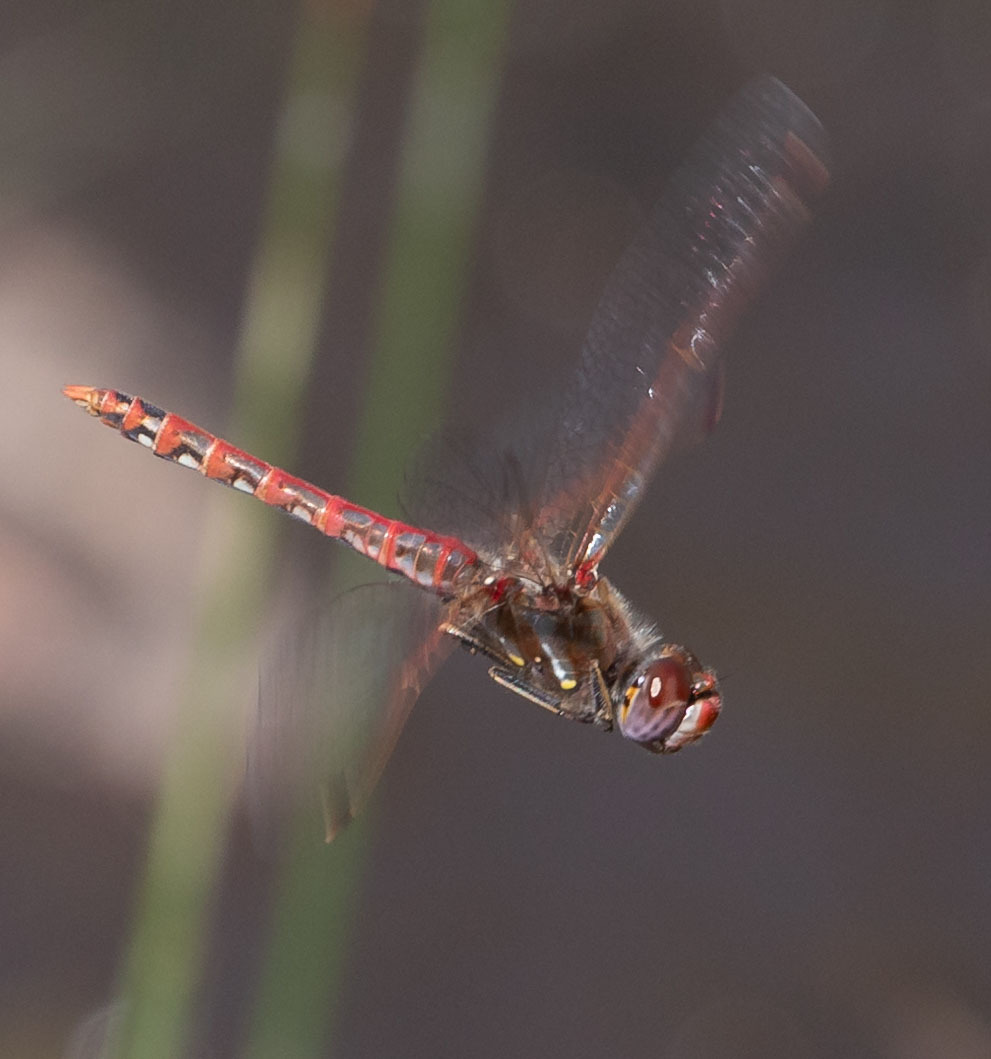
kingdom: Animalia
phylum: Arthropoda
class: Insecta
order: Odonata
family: Libellulidae
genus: Sympetrum
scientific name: Sympetrum corruptum
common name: Variegated meadowhawk
